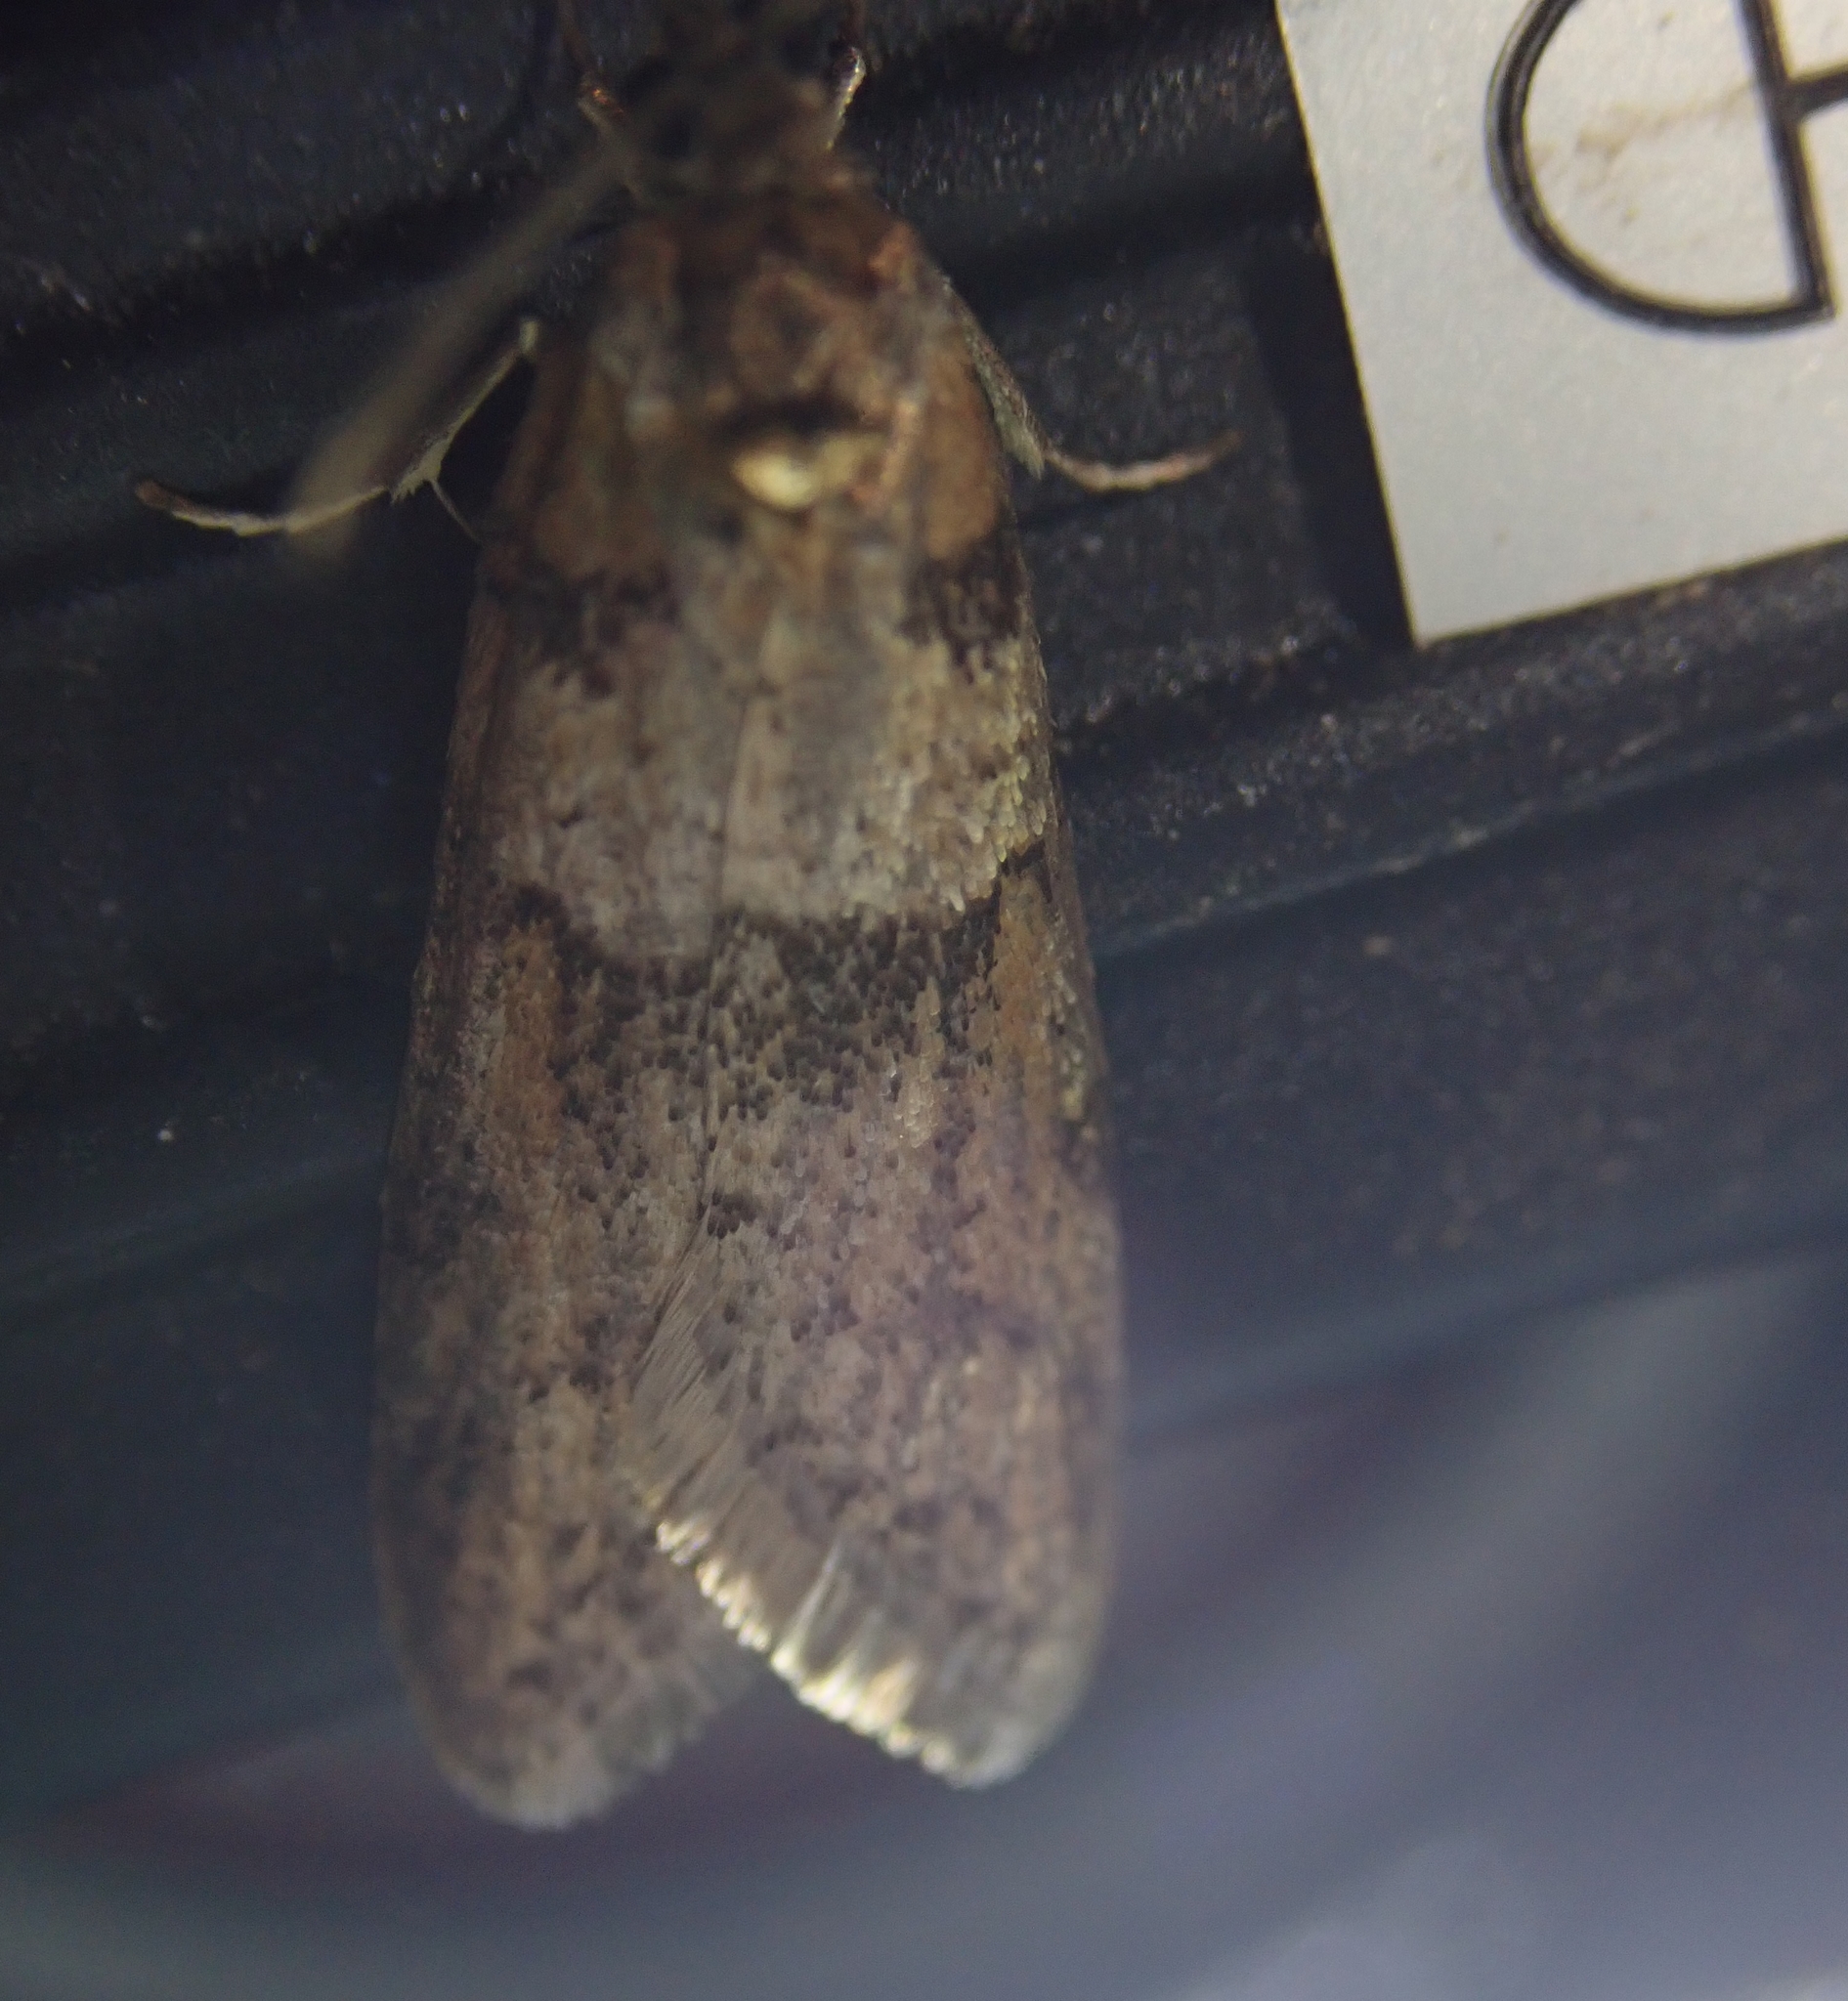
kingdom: Animalia
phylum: Arthropoda
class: Insecta
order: Lepidoptera
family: Tortricidae
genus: Tortricodes
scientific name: Tortricodes alternella
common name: Winter shade
